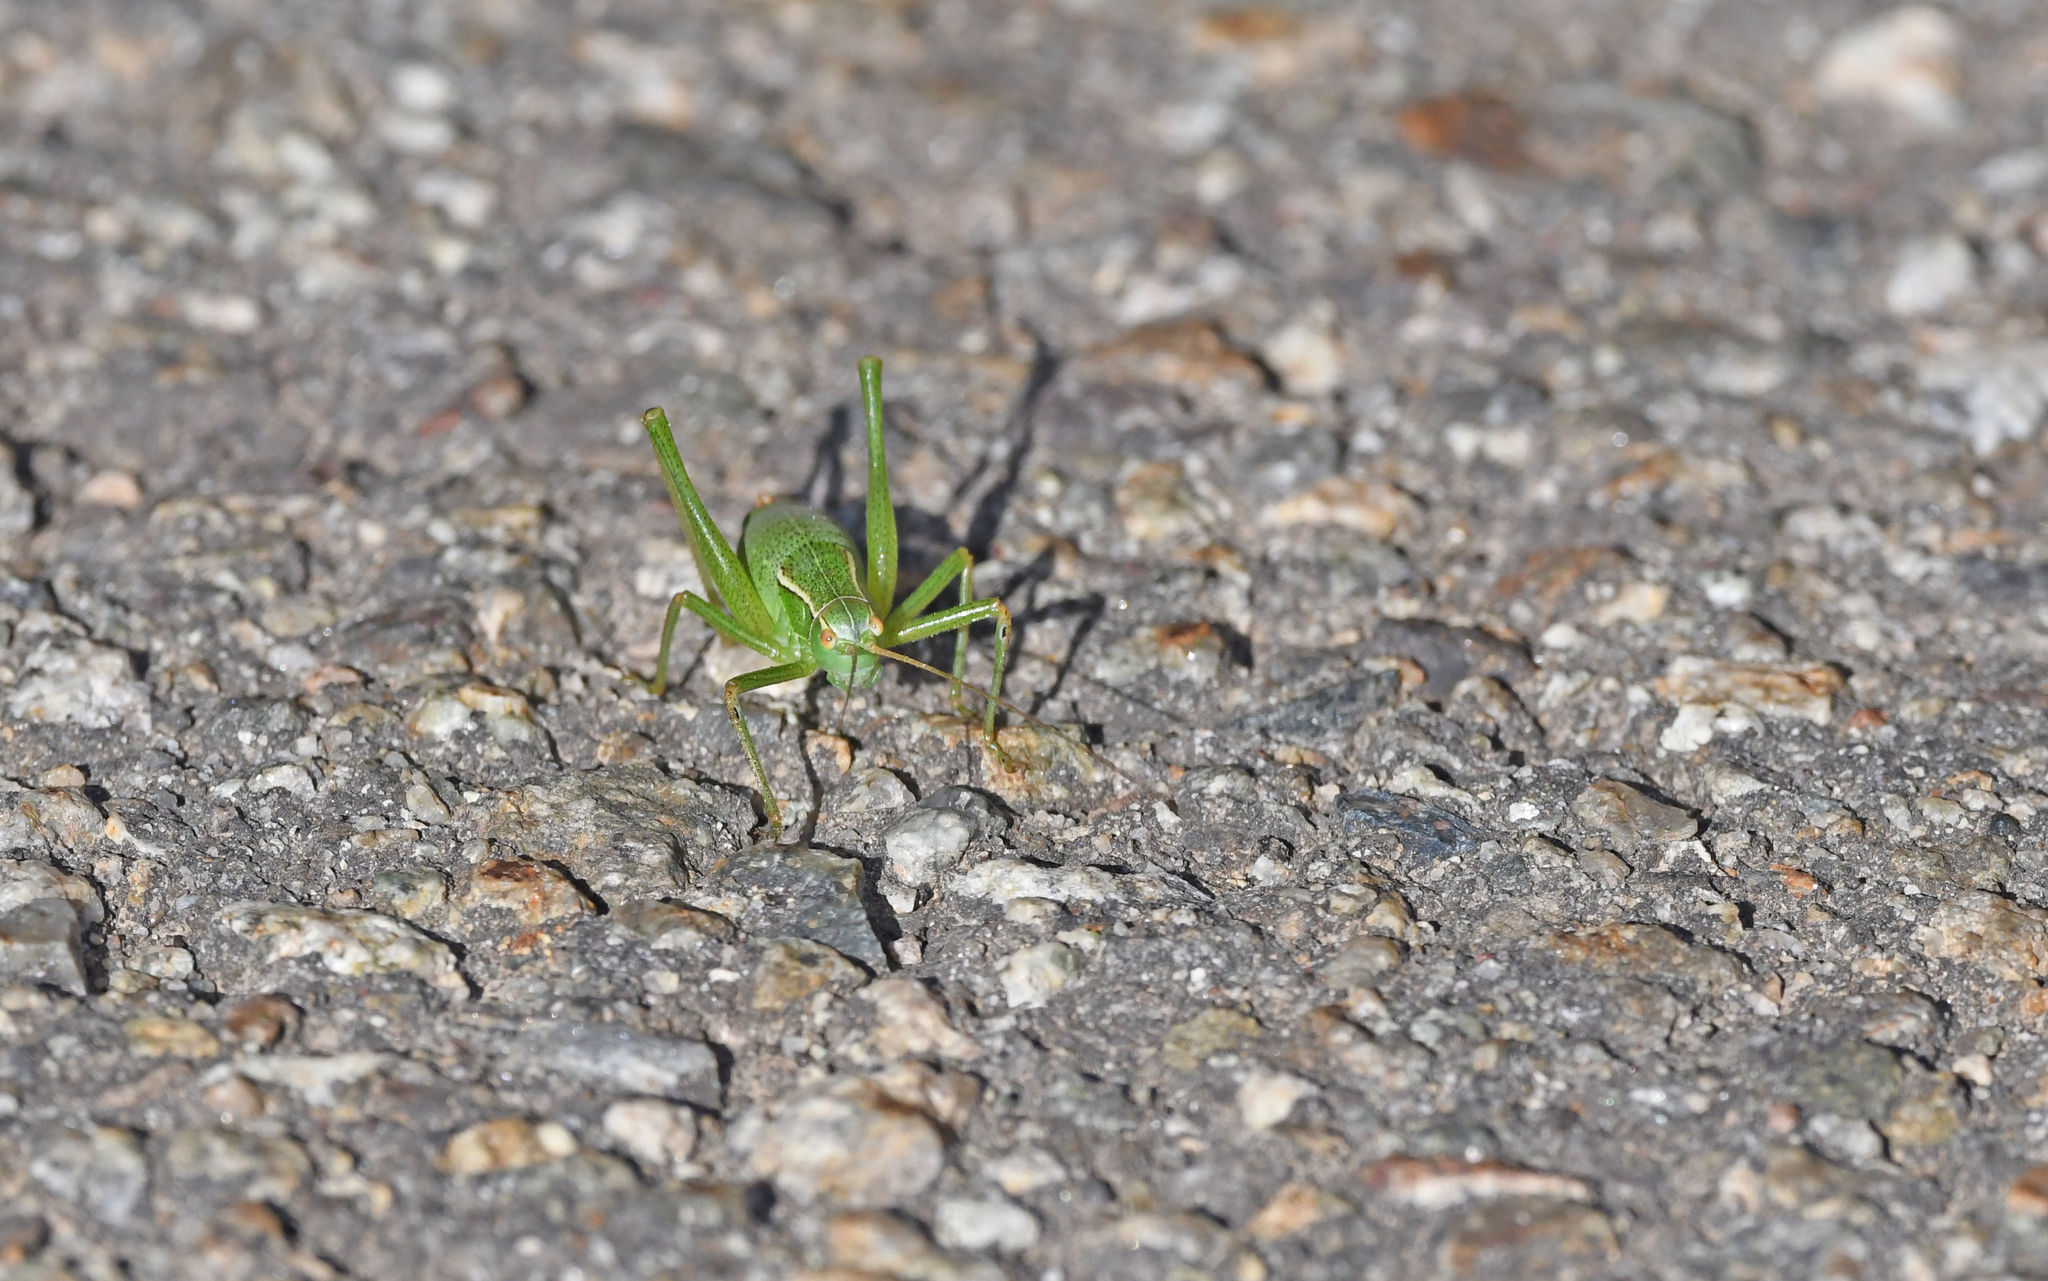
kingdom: Animalia
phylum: Arthropoda
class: Insecta
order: Orthoptera
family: Tettigoniidae
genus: Leptophyes
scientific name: Leptophyes punctatissima
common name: Speckled bush-cricket
